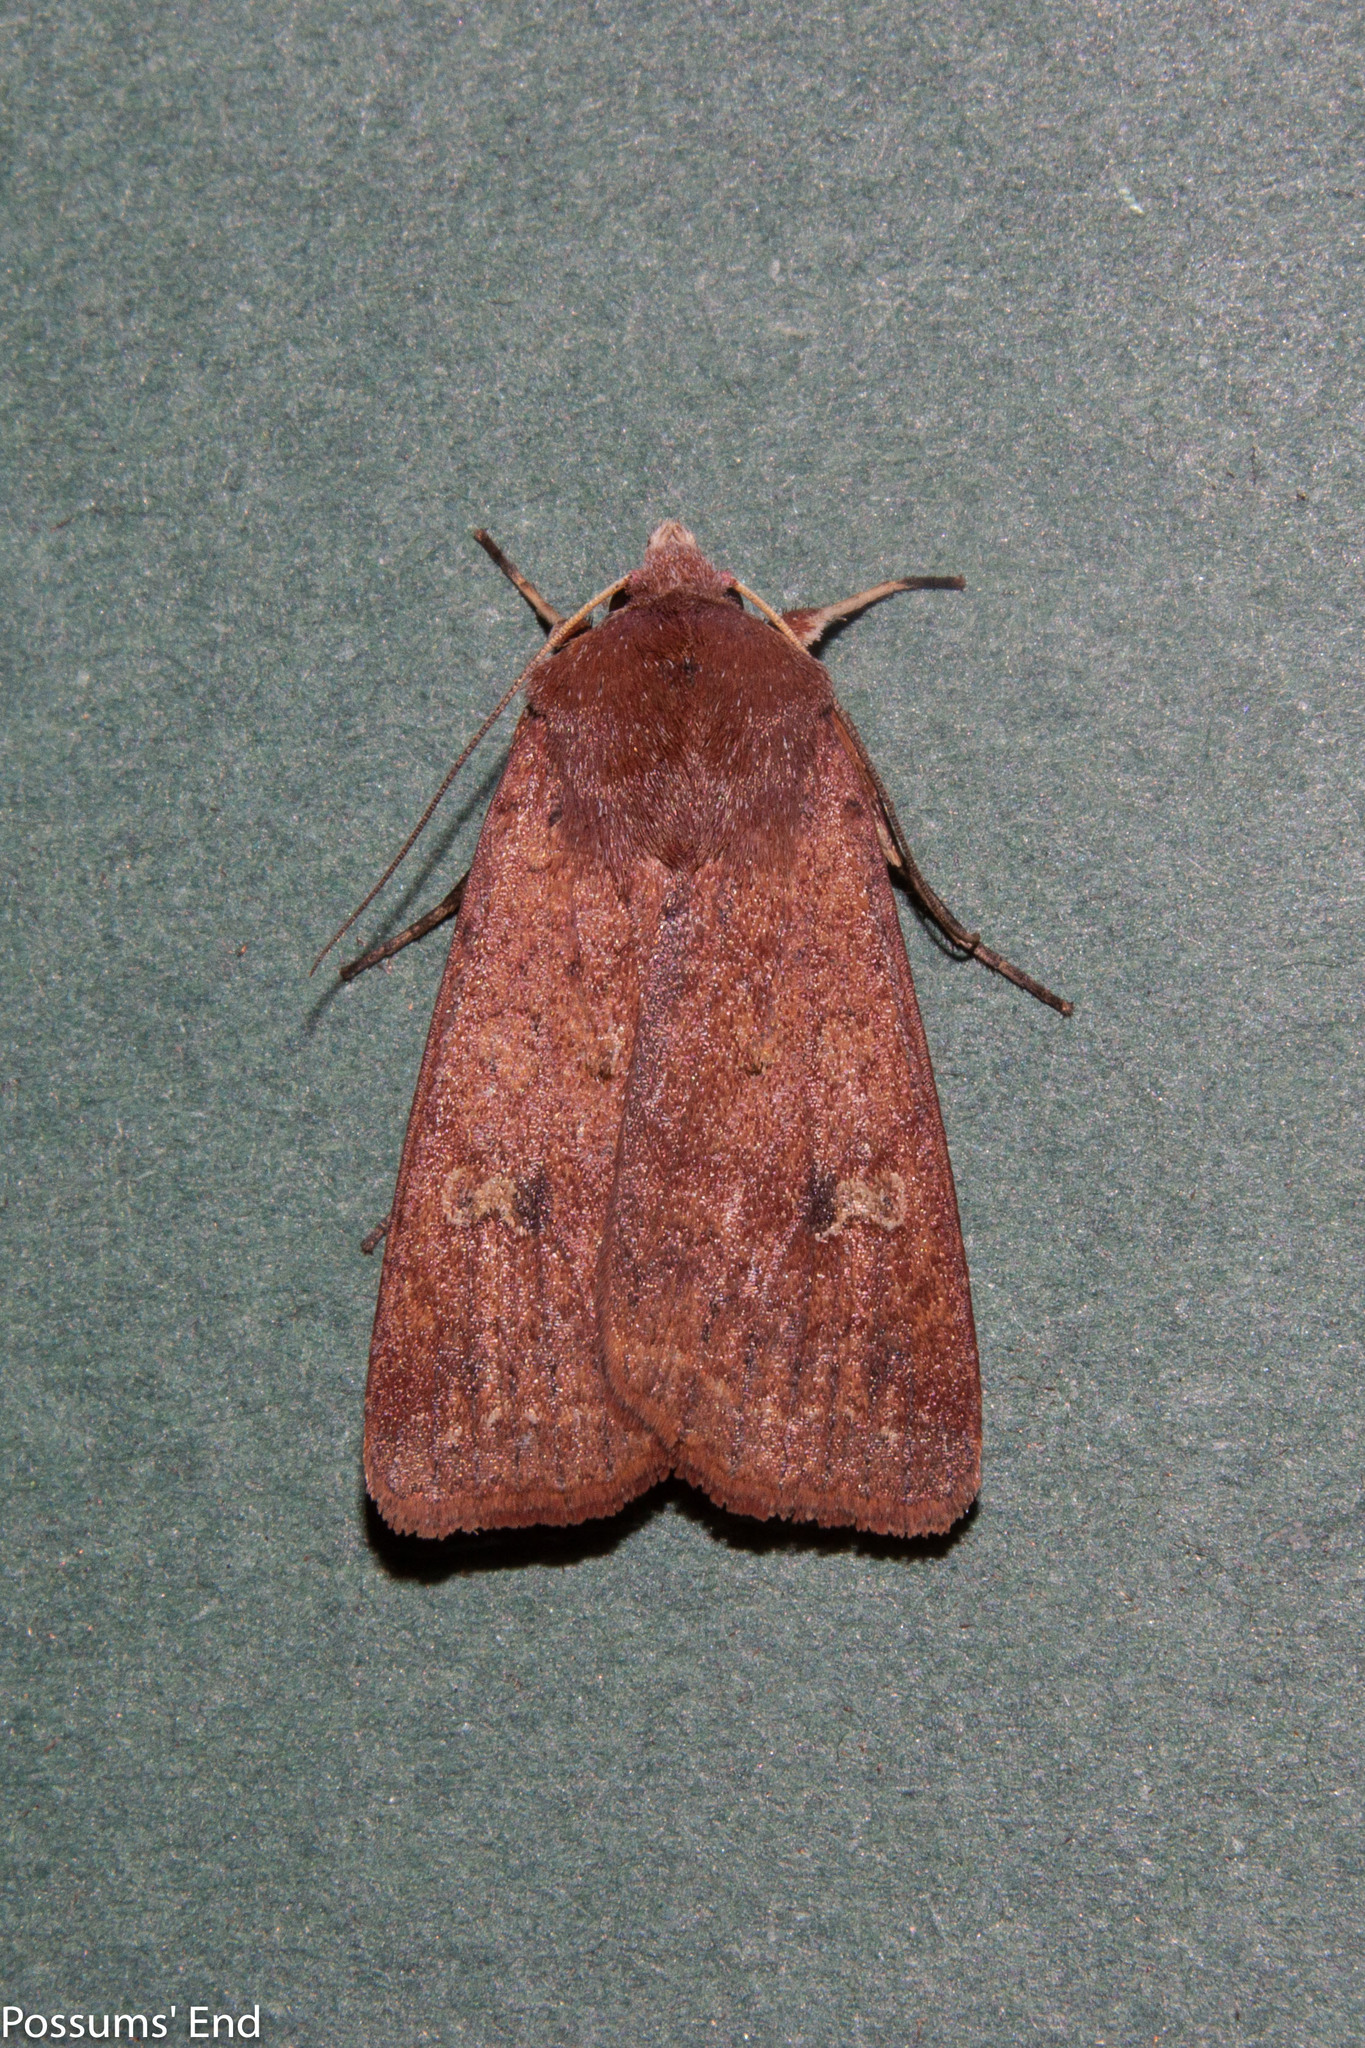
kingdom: Animalia
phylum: Arthropoda
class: Insecta
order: Lepidoptera
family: Noctuidae
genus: Diarsia
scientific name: Diarsia intermixta
